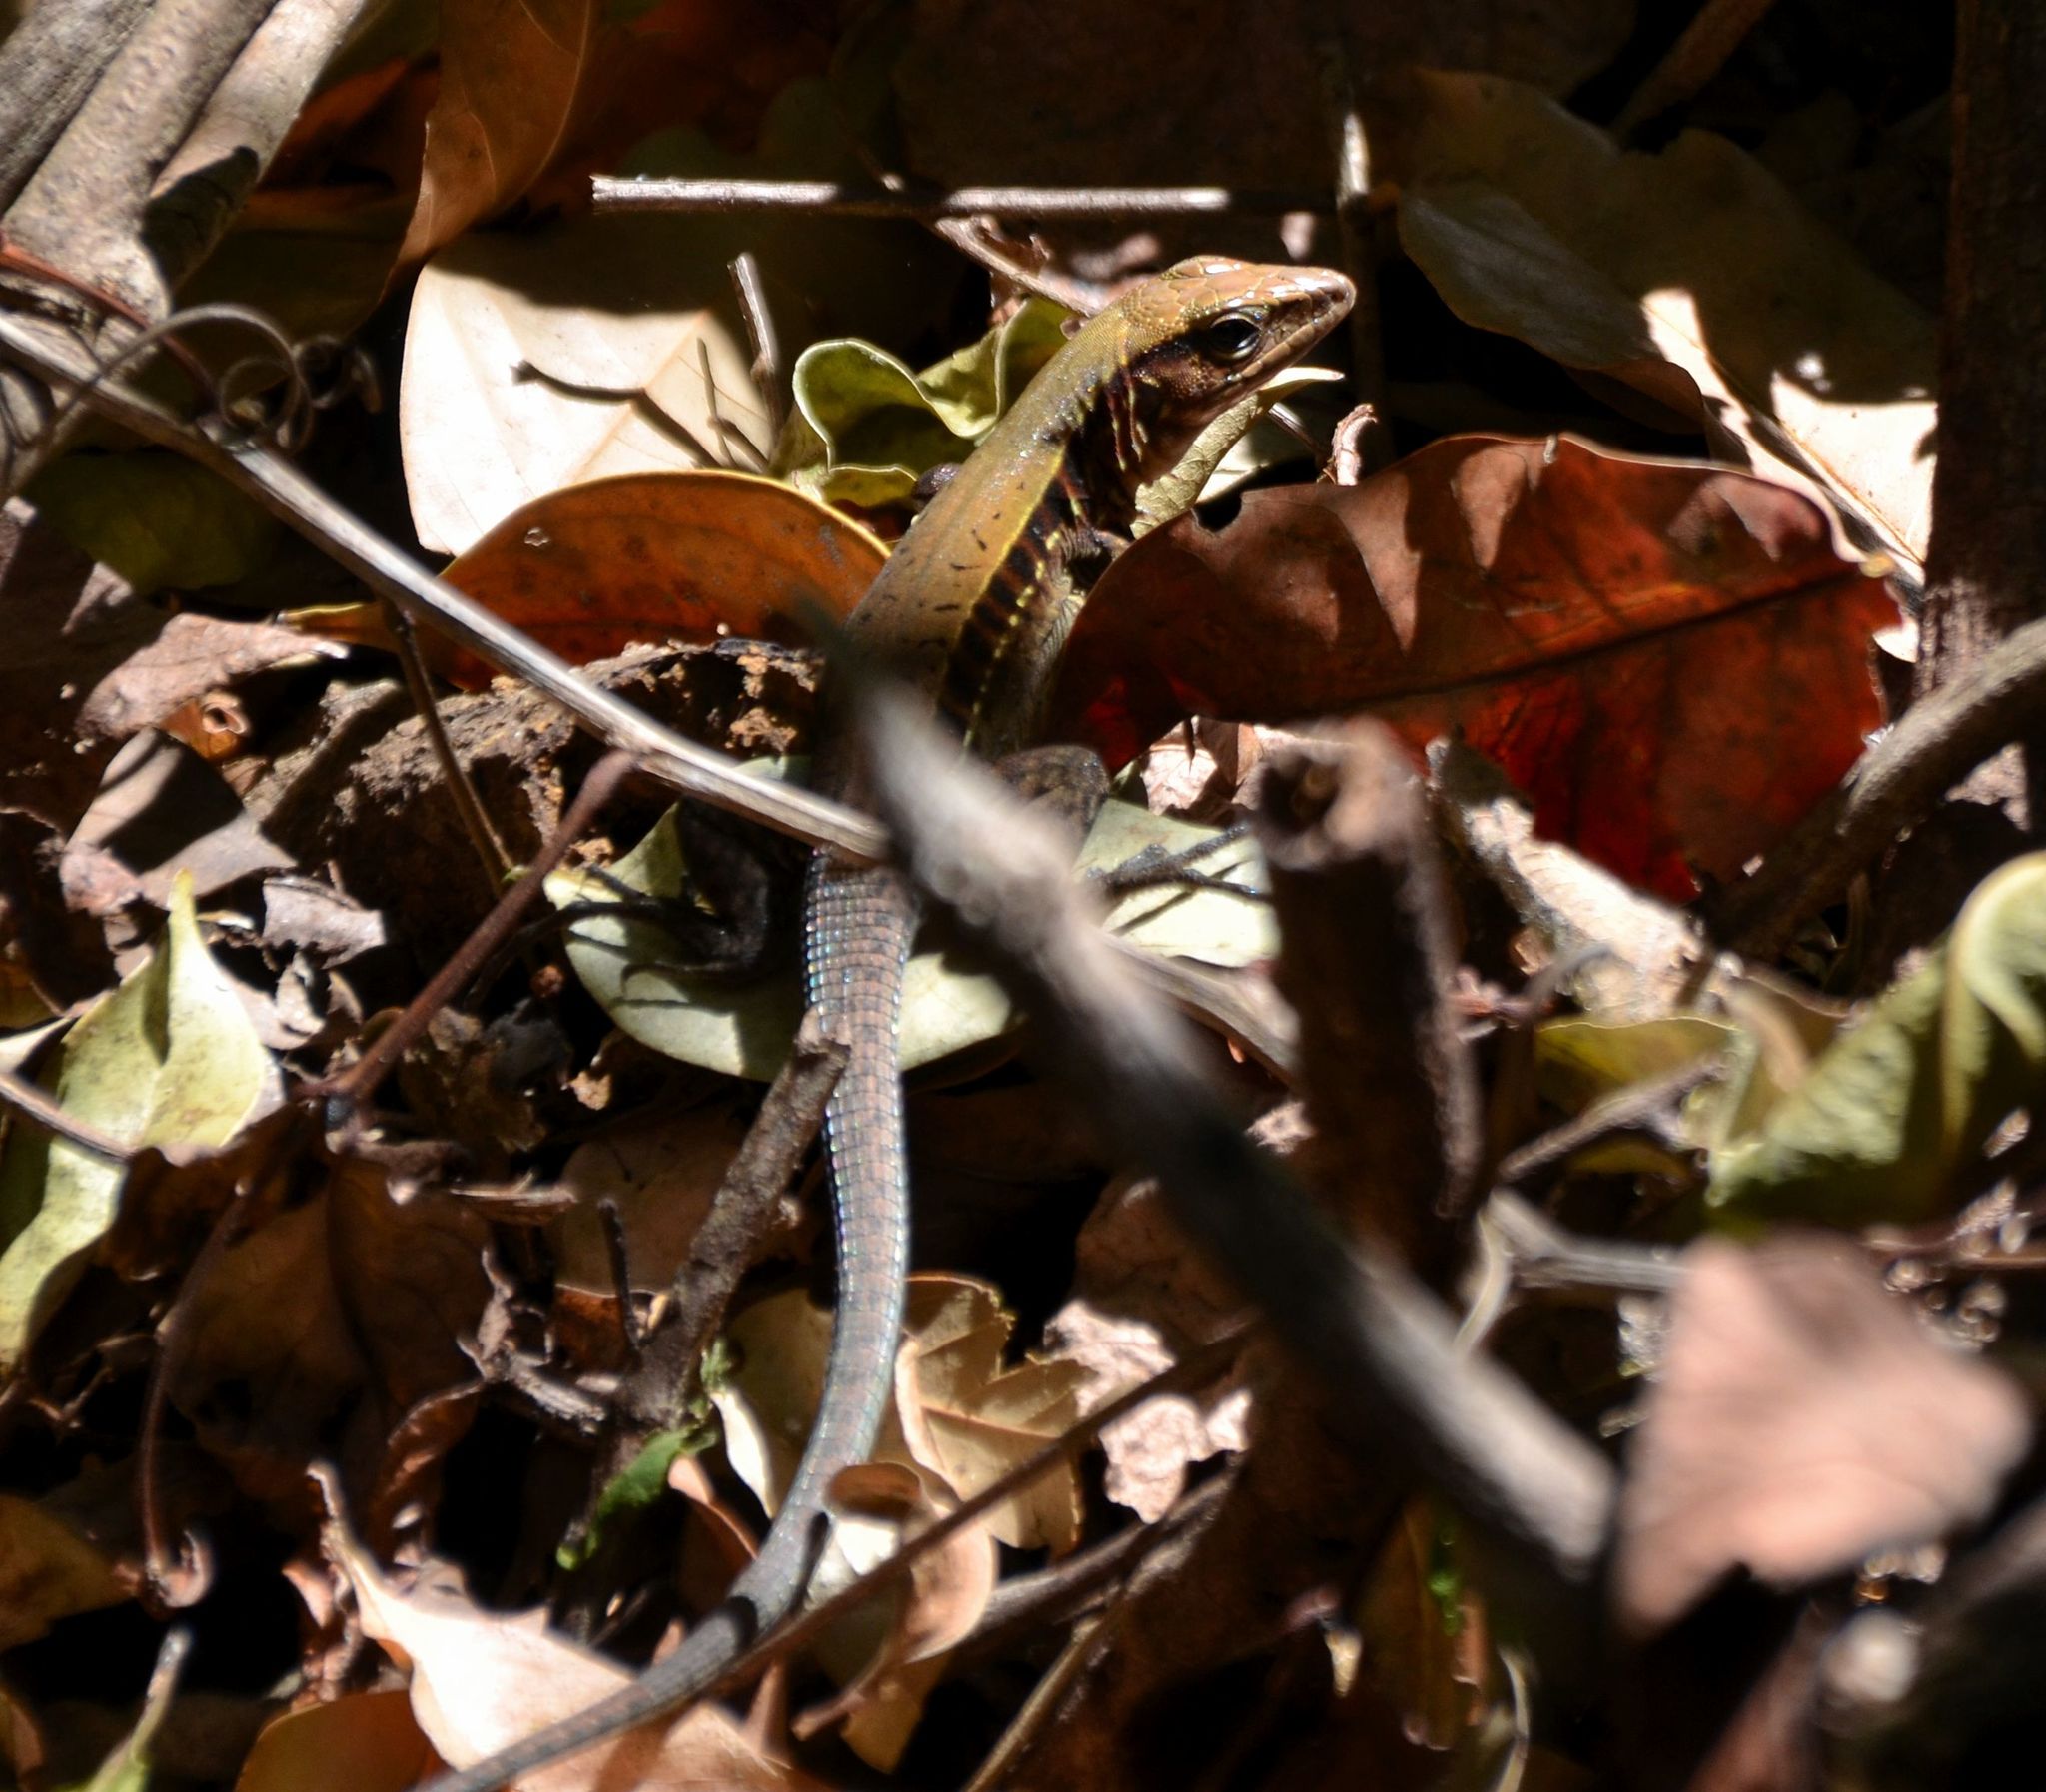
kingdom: Animalia
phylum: Chordata
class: Squamata
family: Teiidae
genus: Holcosus
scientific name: Holcosus undulatus
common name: Rainbow ameiva
